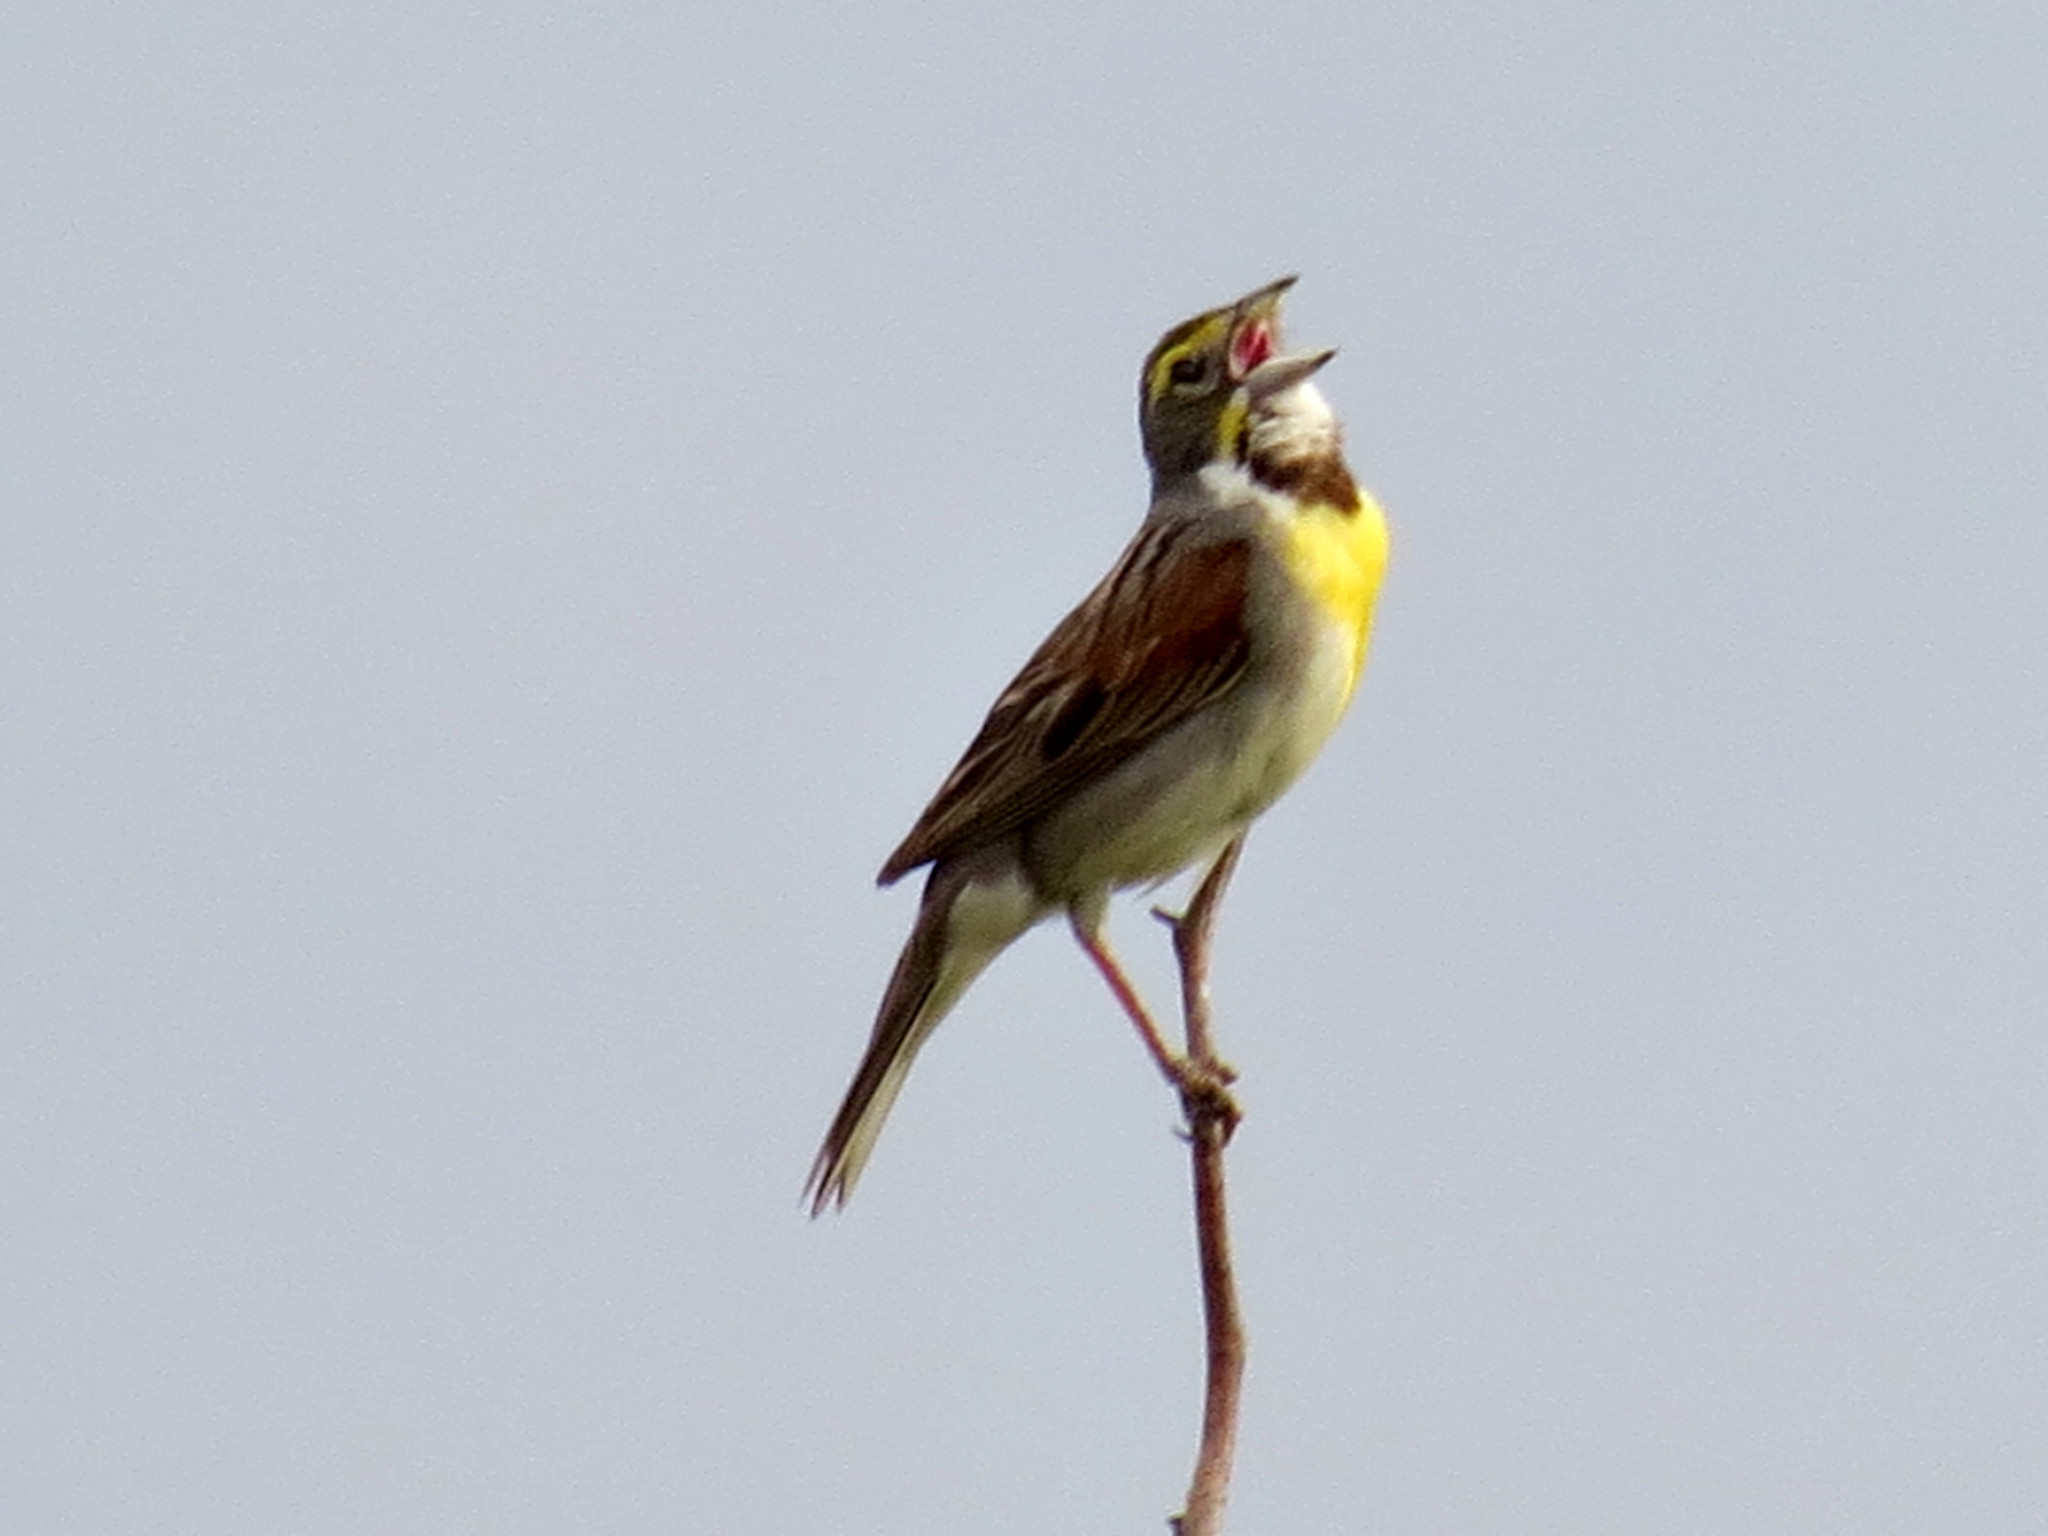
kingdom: Animalia
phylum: Chordata
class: Aves
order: Passeriformes
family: Cardinalidae
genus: Spiza
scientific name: Spiza americana
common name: Dickcissel
